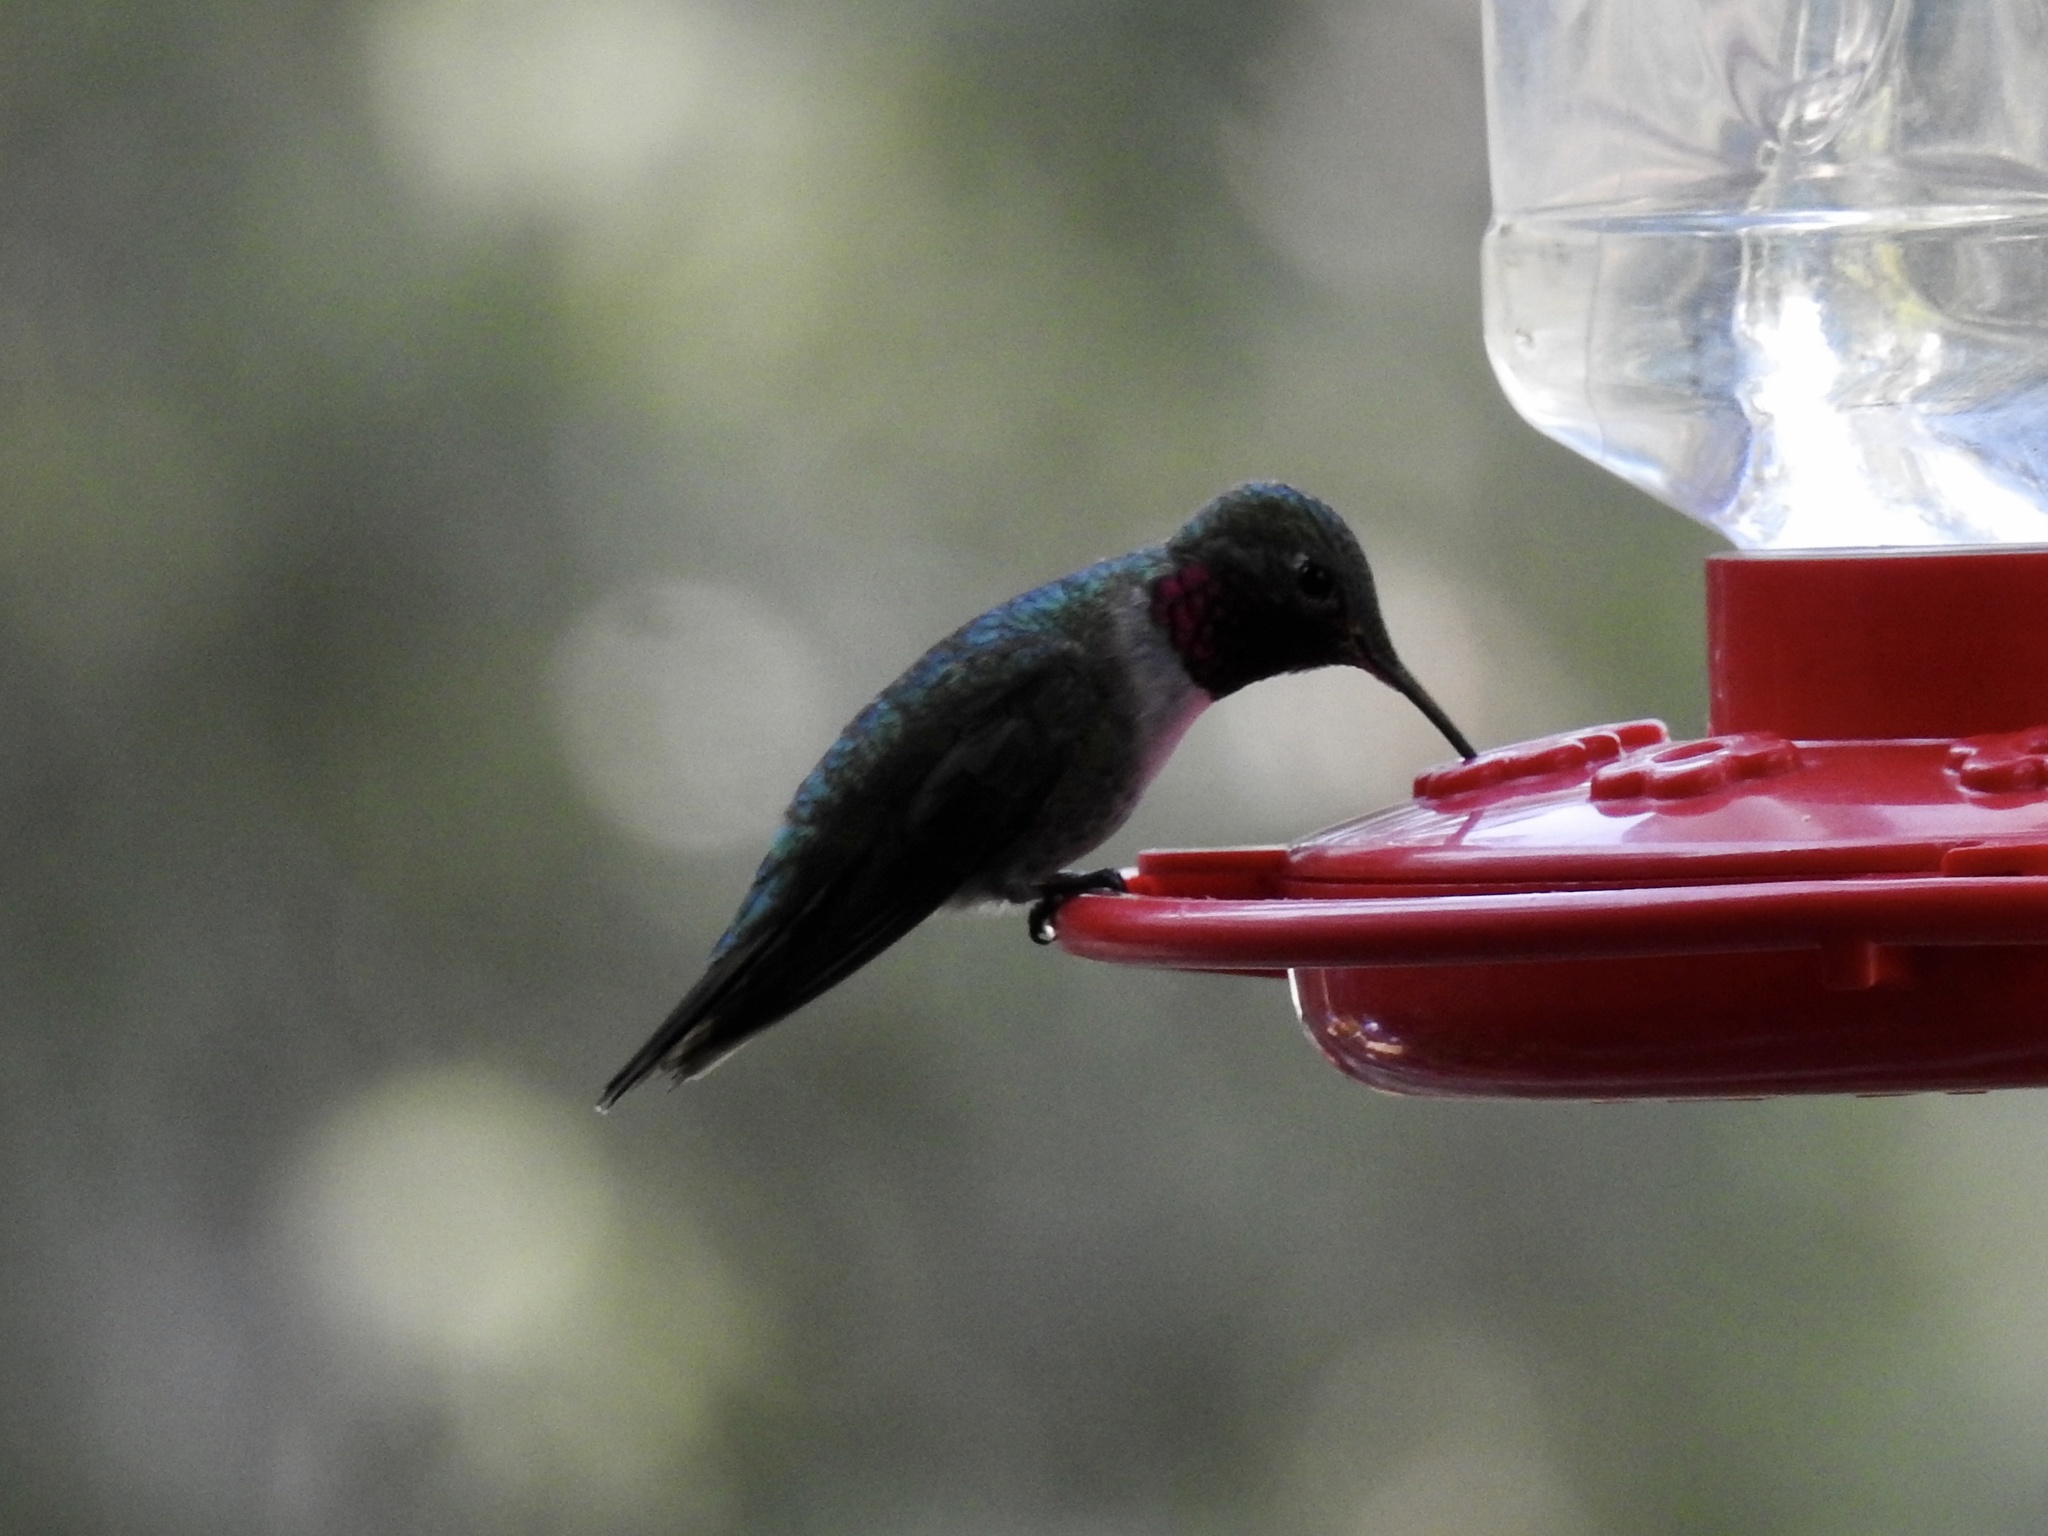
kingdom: Animalia
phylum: Chordata
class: Aves
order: Apodiformes
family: Trochilidae
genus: Selasphorus
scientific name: Selasphorus platycercus
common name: Broad-tailed hummingbird
